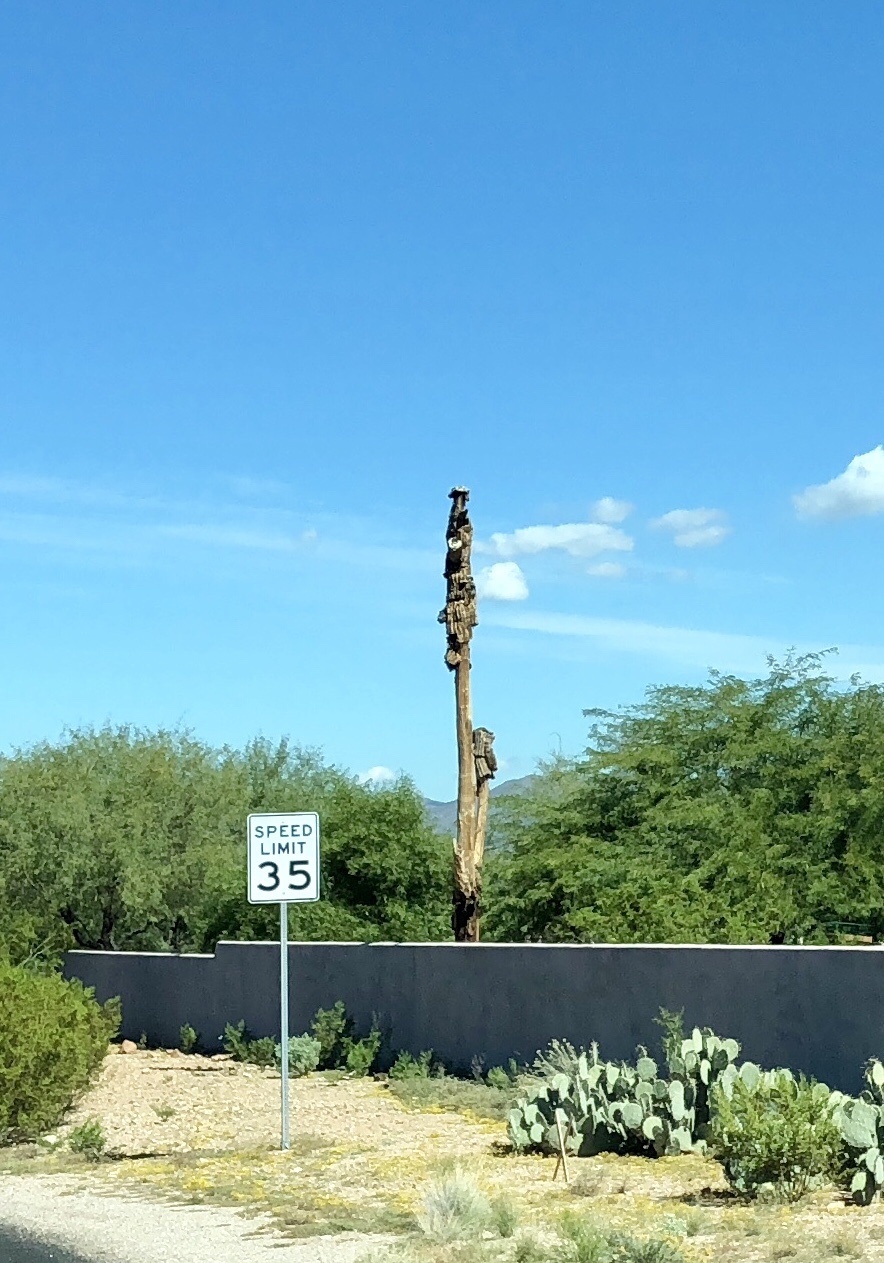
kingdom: Plantae
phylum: Tracheophyta
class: Magnoliopsida
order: Caryophyllales
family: Cactaceae
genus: Carnegiea
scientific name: Carnegiea gigantea
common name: Saguaro
